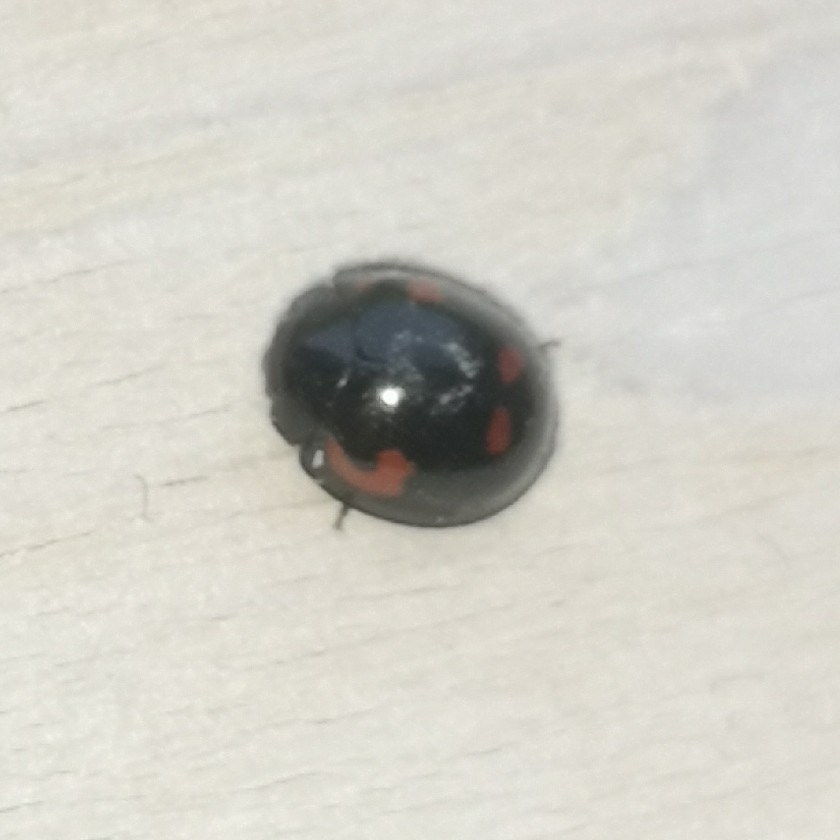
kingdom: Animalia
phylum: Arthropoda
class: Insecta
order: Coleoptera
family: Coccinellidae
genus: Brumus
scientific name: Brumus quadripustulatus
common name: Ladybird beetle
